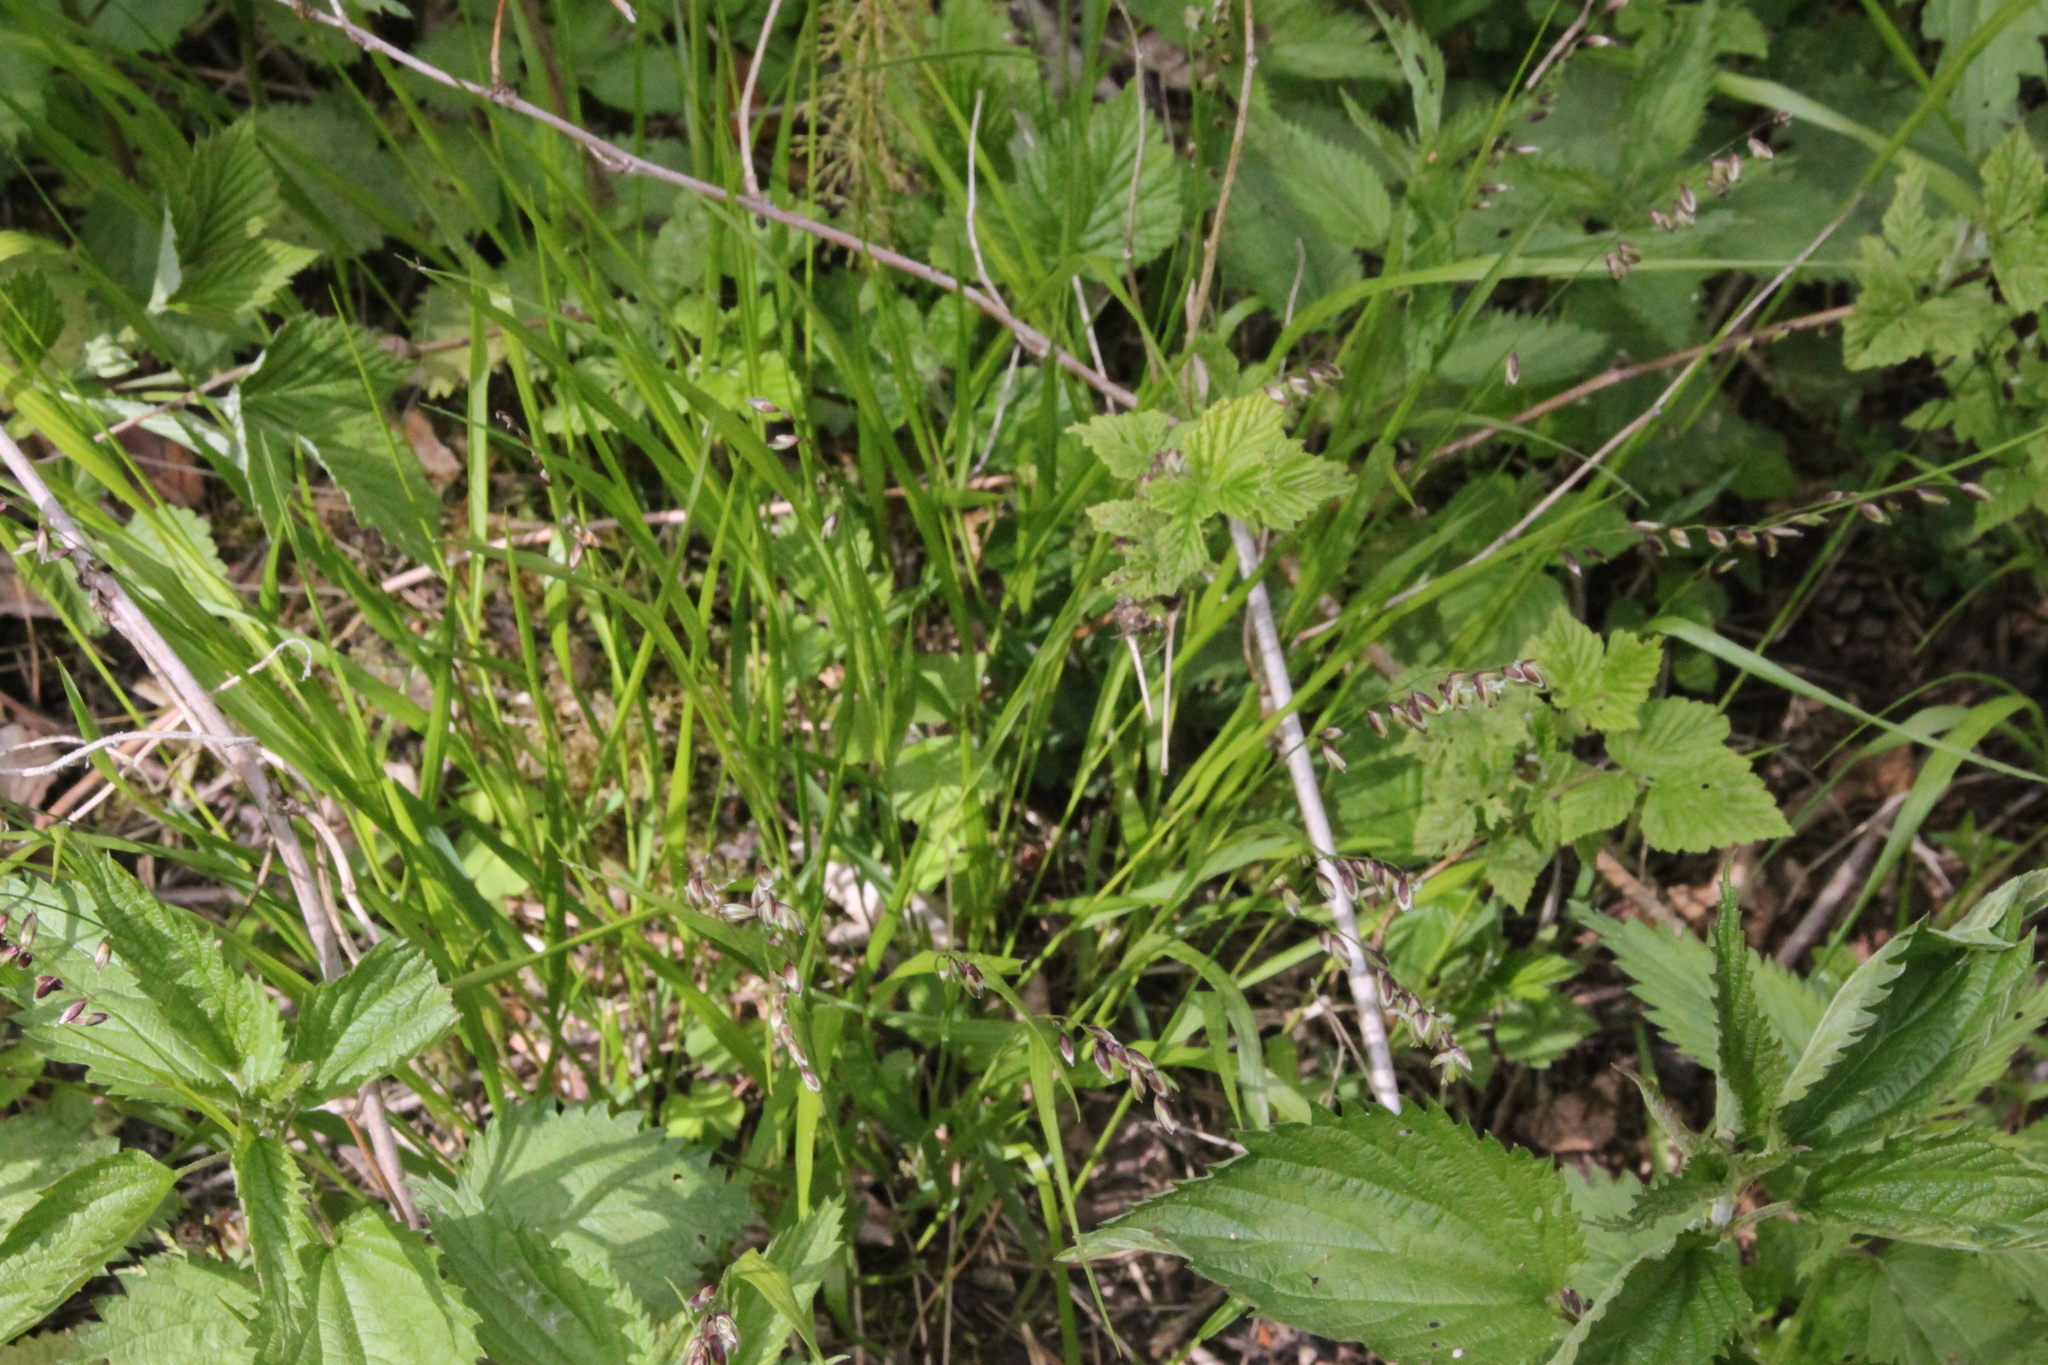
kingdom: Plantae
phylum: Tracheophyta
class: Liliopsida
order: Poales
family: Poaceae
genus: Melica
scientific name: Melica nutans
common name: Mountain melick
